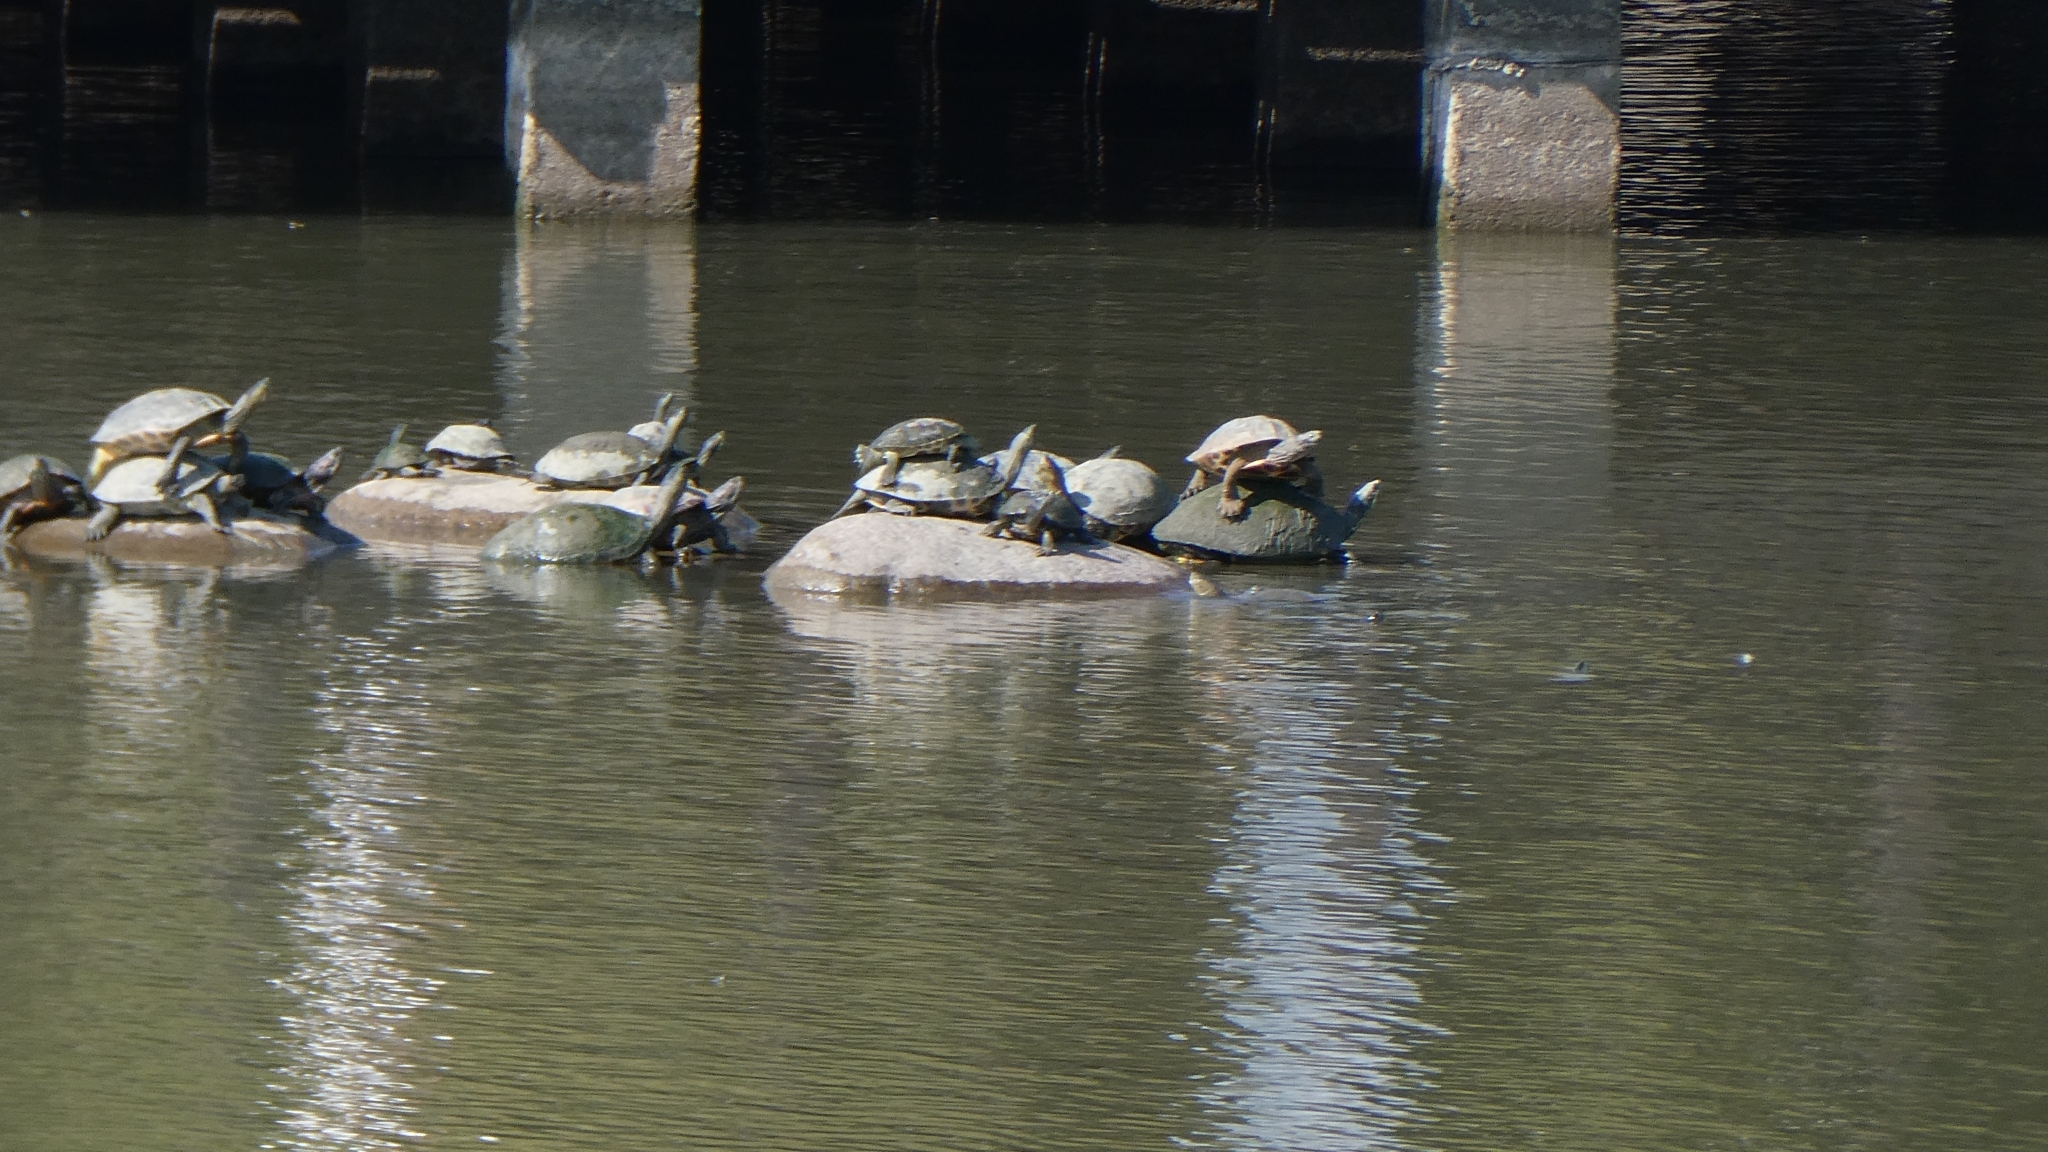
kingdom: Animalia
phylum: Chordata
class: Testudines
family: Geoemydidae
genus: Mauremys
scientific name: Mauremys sinensis
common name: Chinese stripe-necked turtle
